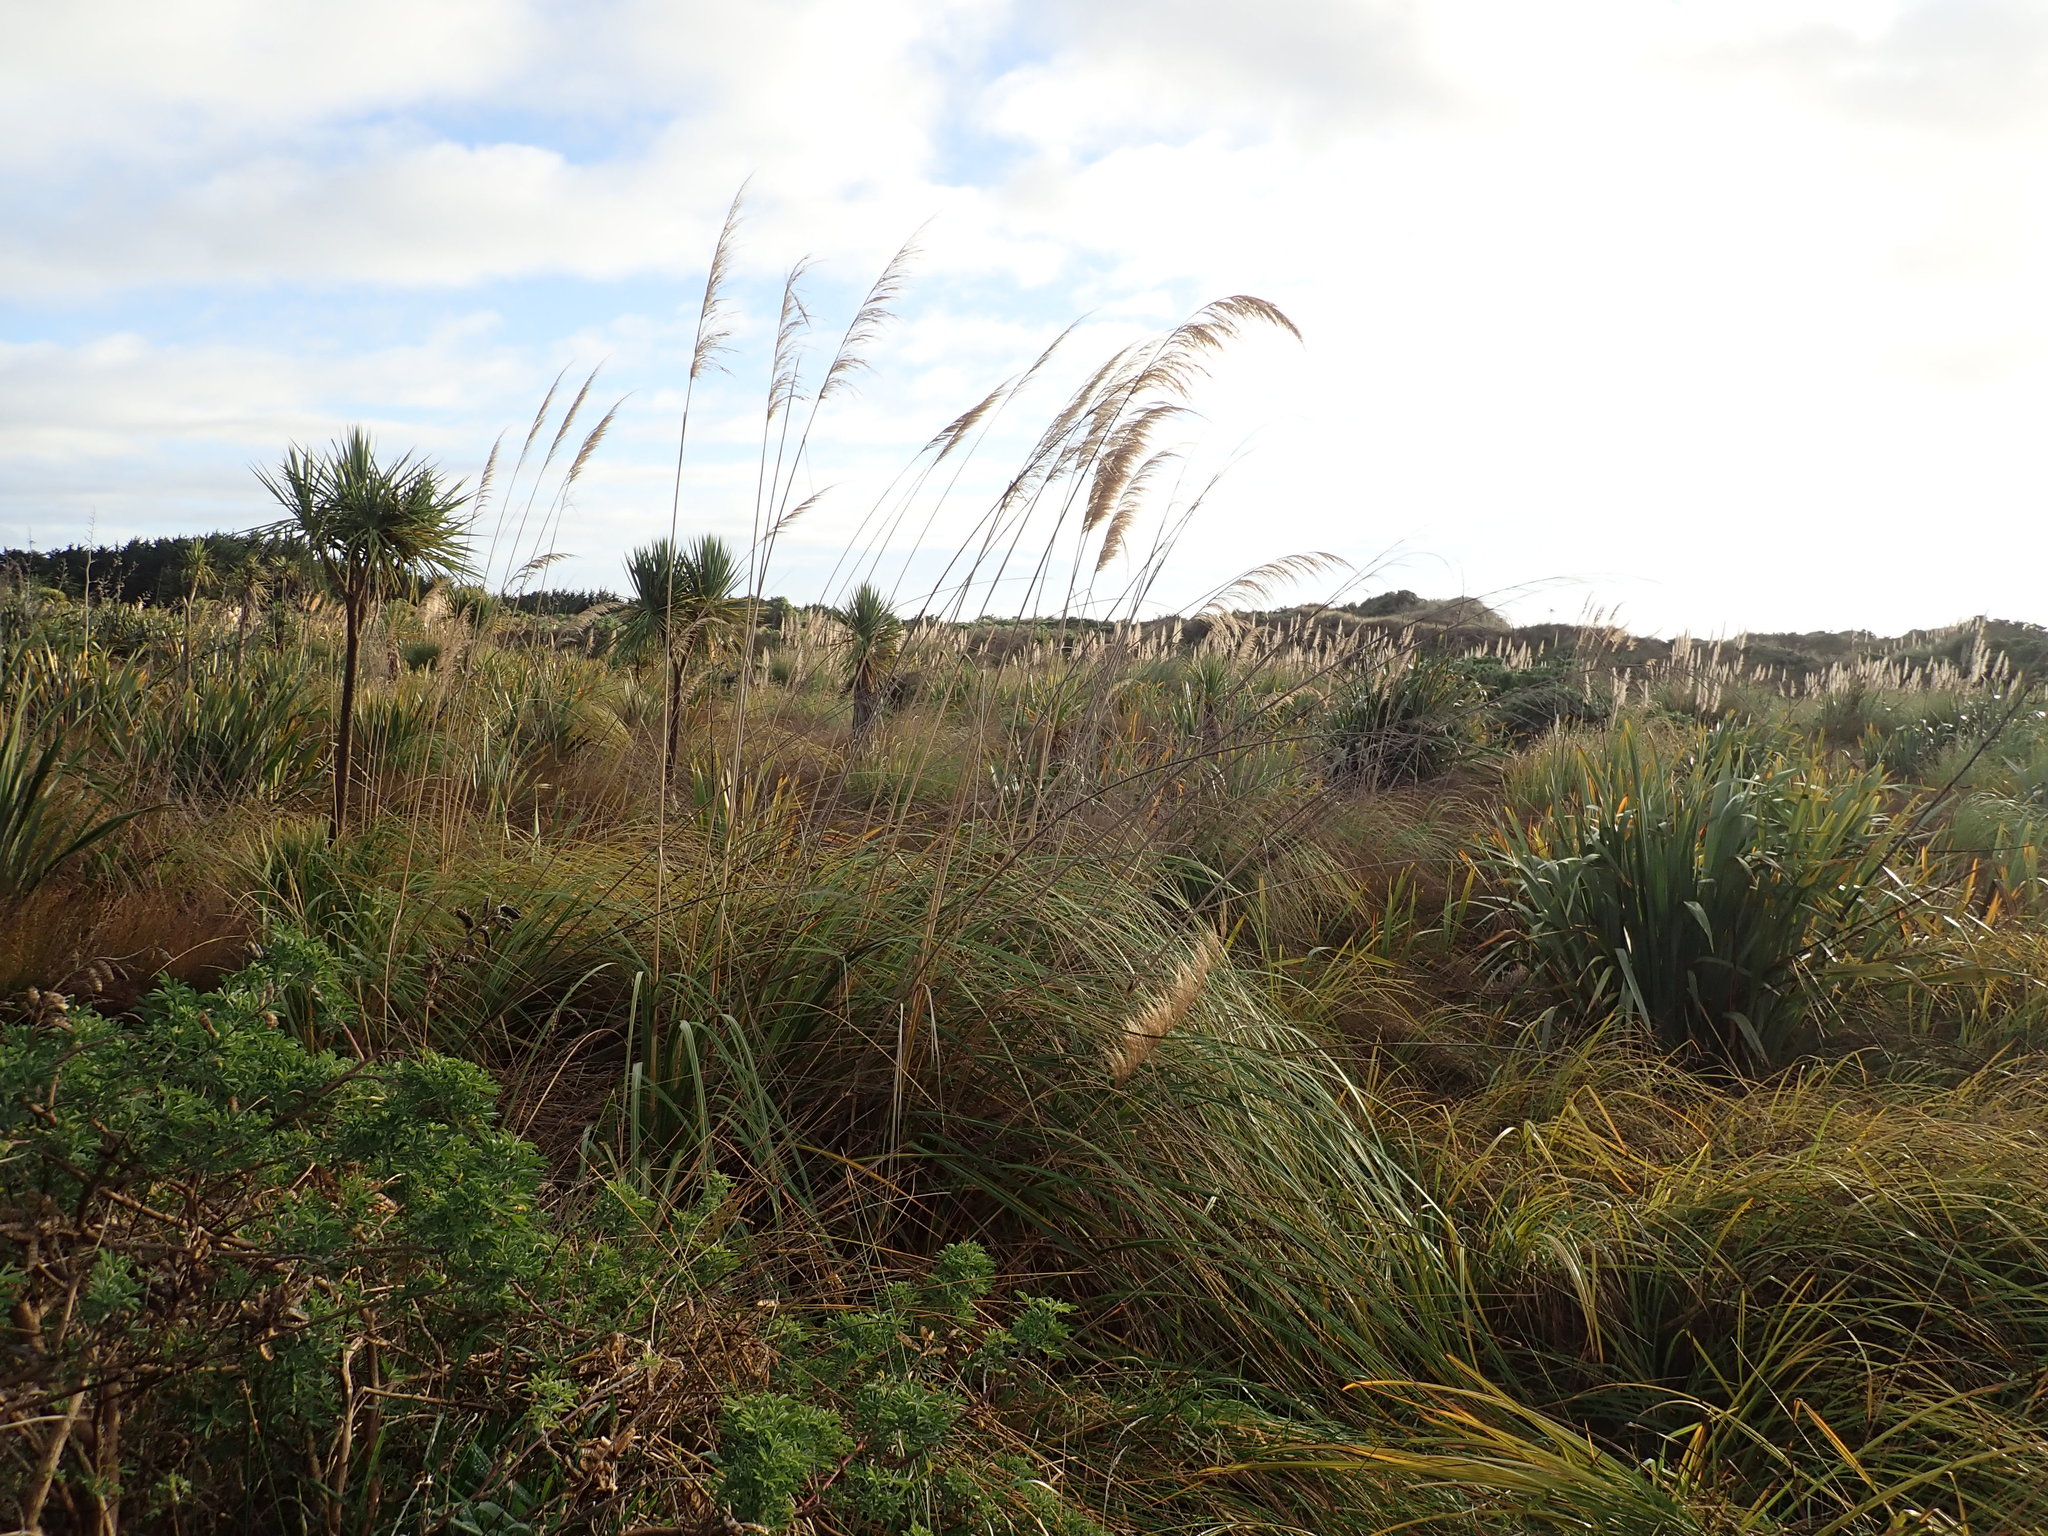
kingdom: Plantae
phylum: Tracheophyta
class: Liliopsida
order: Poales
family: Poaceae
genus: Austroderia
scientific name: Austroderia toetoe
